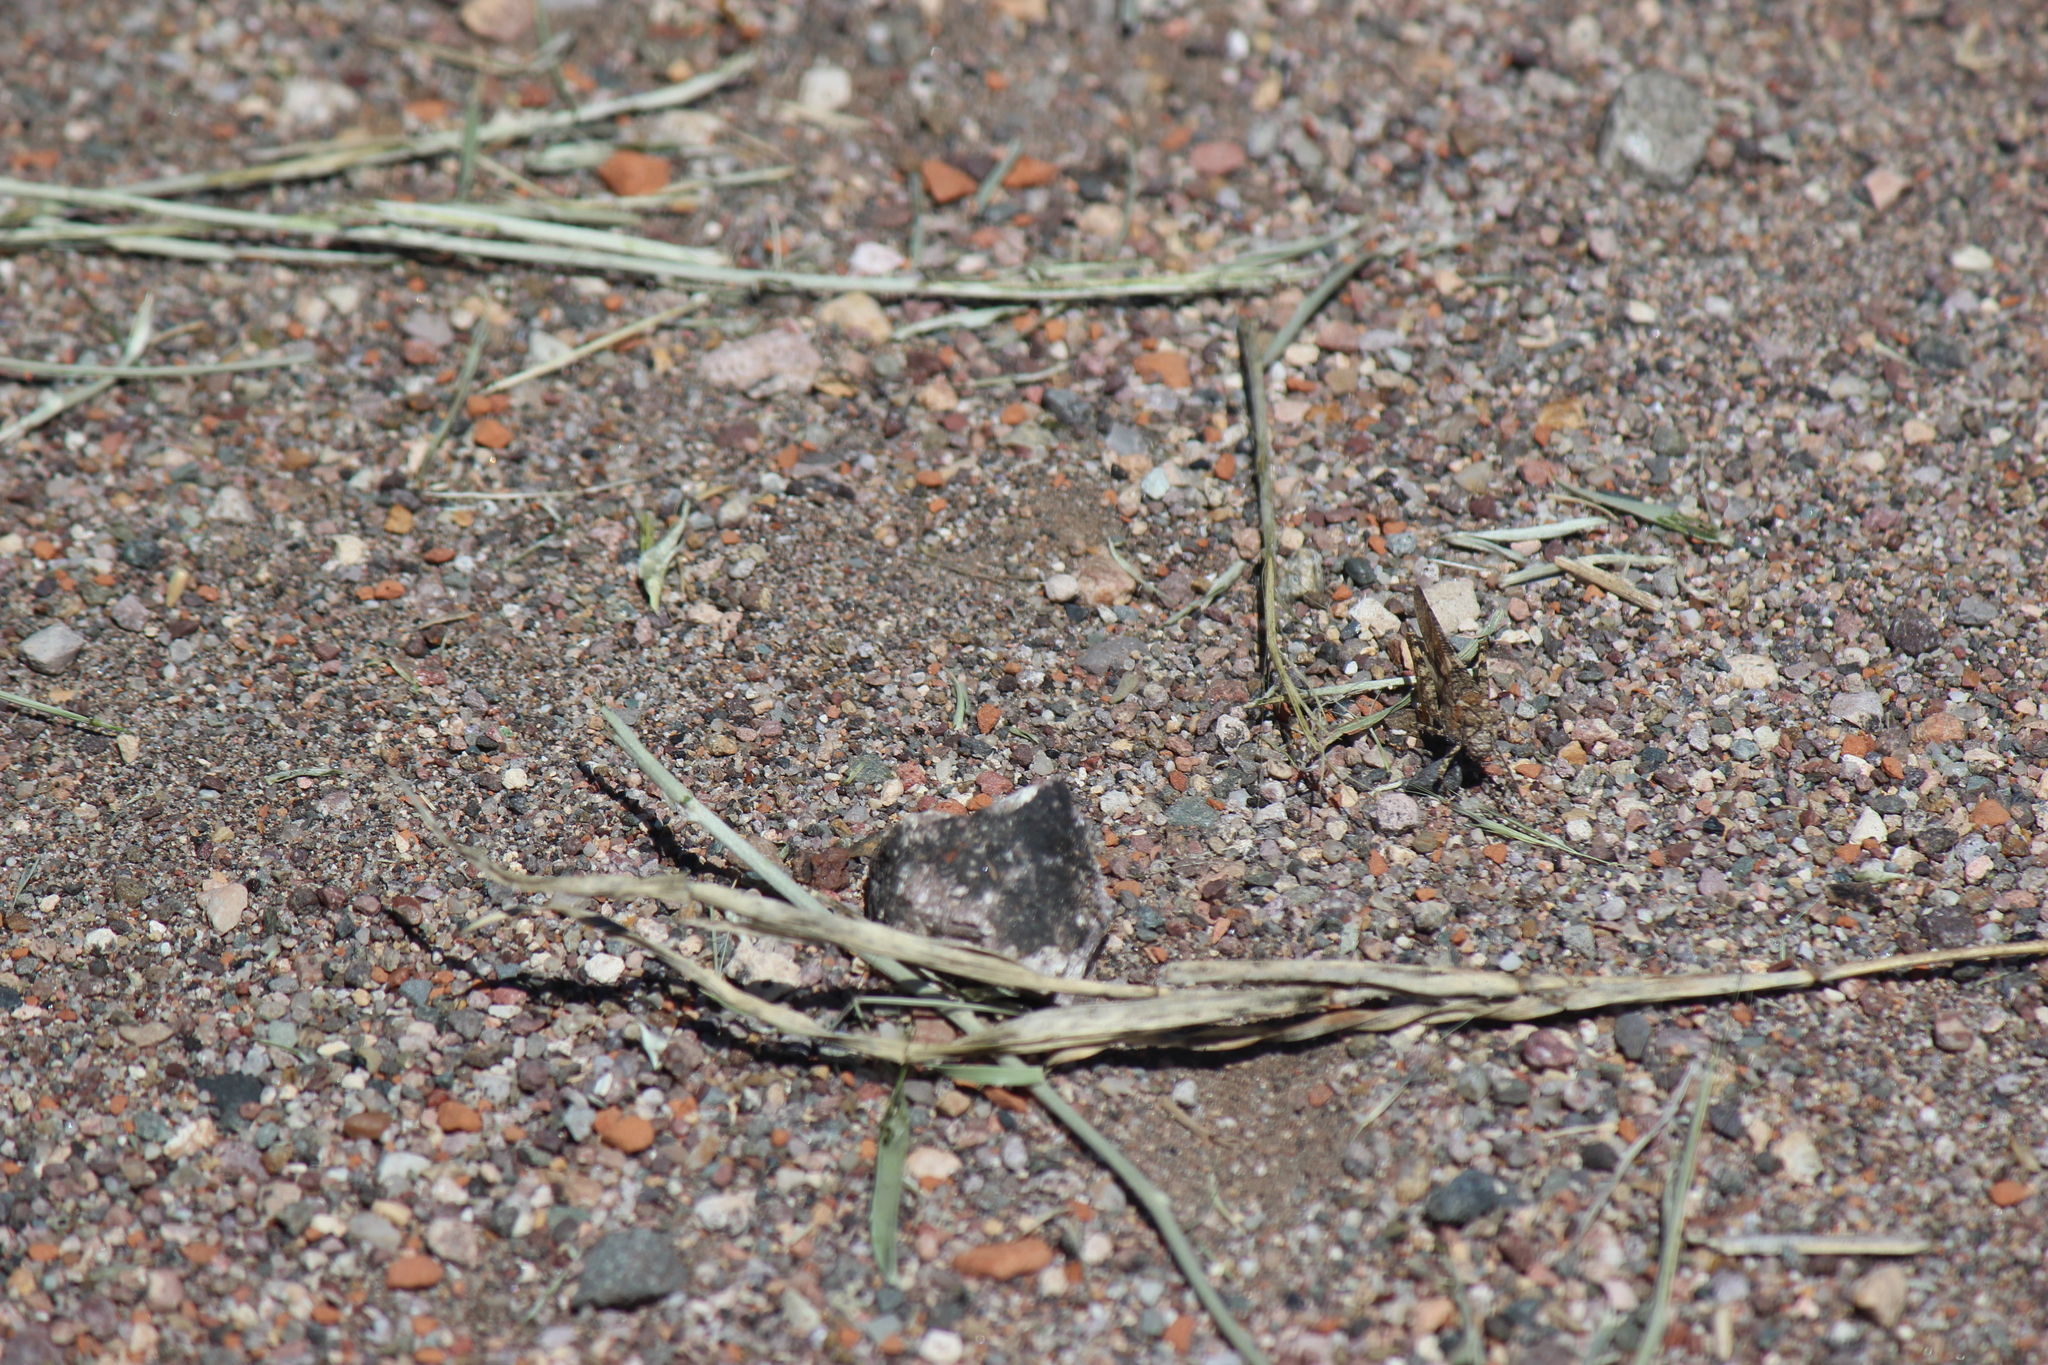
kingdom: Animalia
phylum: Arthropoda
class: Insecta
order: Orthoptera
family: Acrididae
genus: Trimerotropis
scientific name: Trimerotropis pallidipennis
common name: Pallid-winged grasshopper
